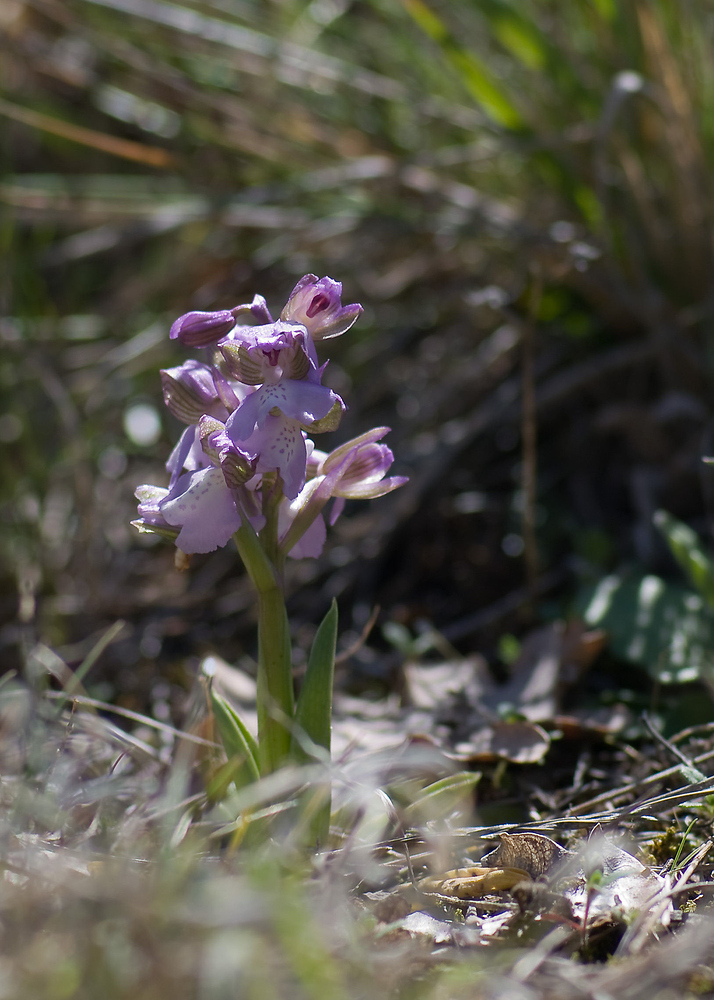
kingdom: Plantae
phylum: Tracheophyta
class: Liliopsida
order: Asparagales
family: Orchidaceae
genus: Anacamptis
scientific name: Anacamptis morio
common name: Green-winged orchid
